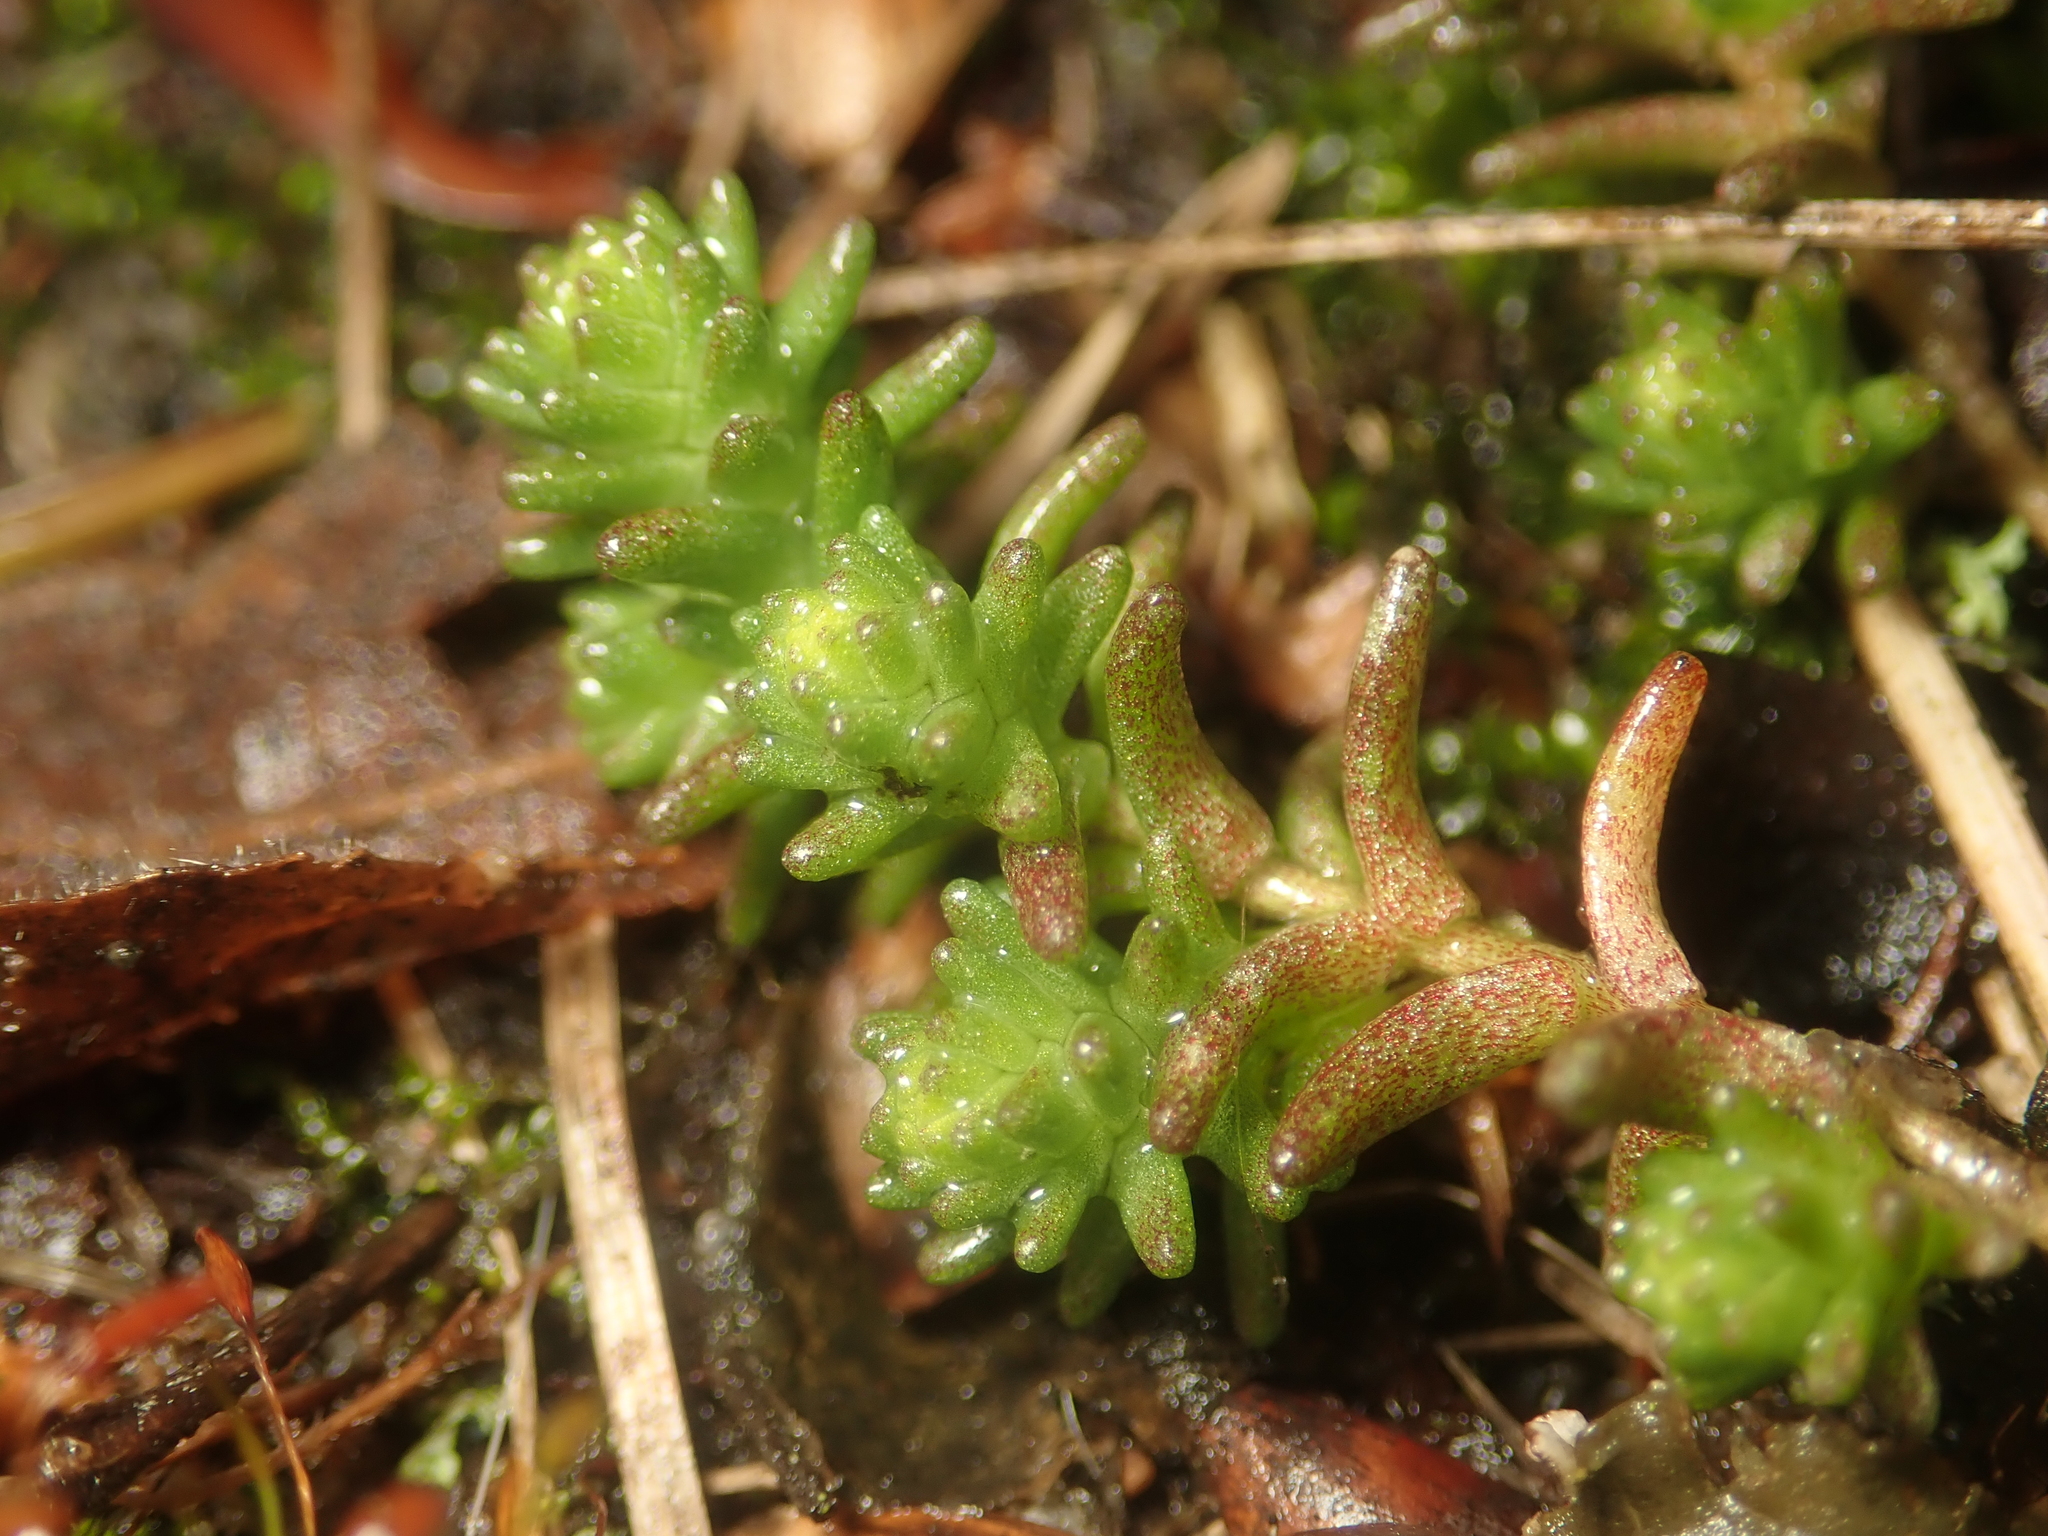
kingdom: Plantae
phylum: Tracheophyta
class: Magnoliopsida
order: Saxifragales
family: Crassulaceae
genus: Sedum
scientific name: Sedum acre
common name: Biting stonecrop
